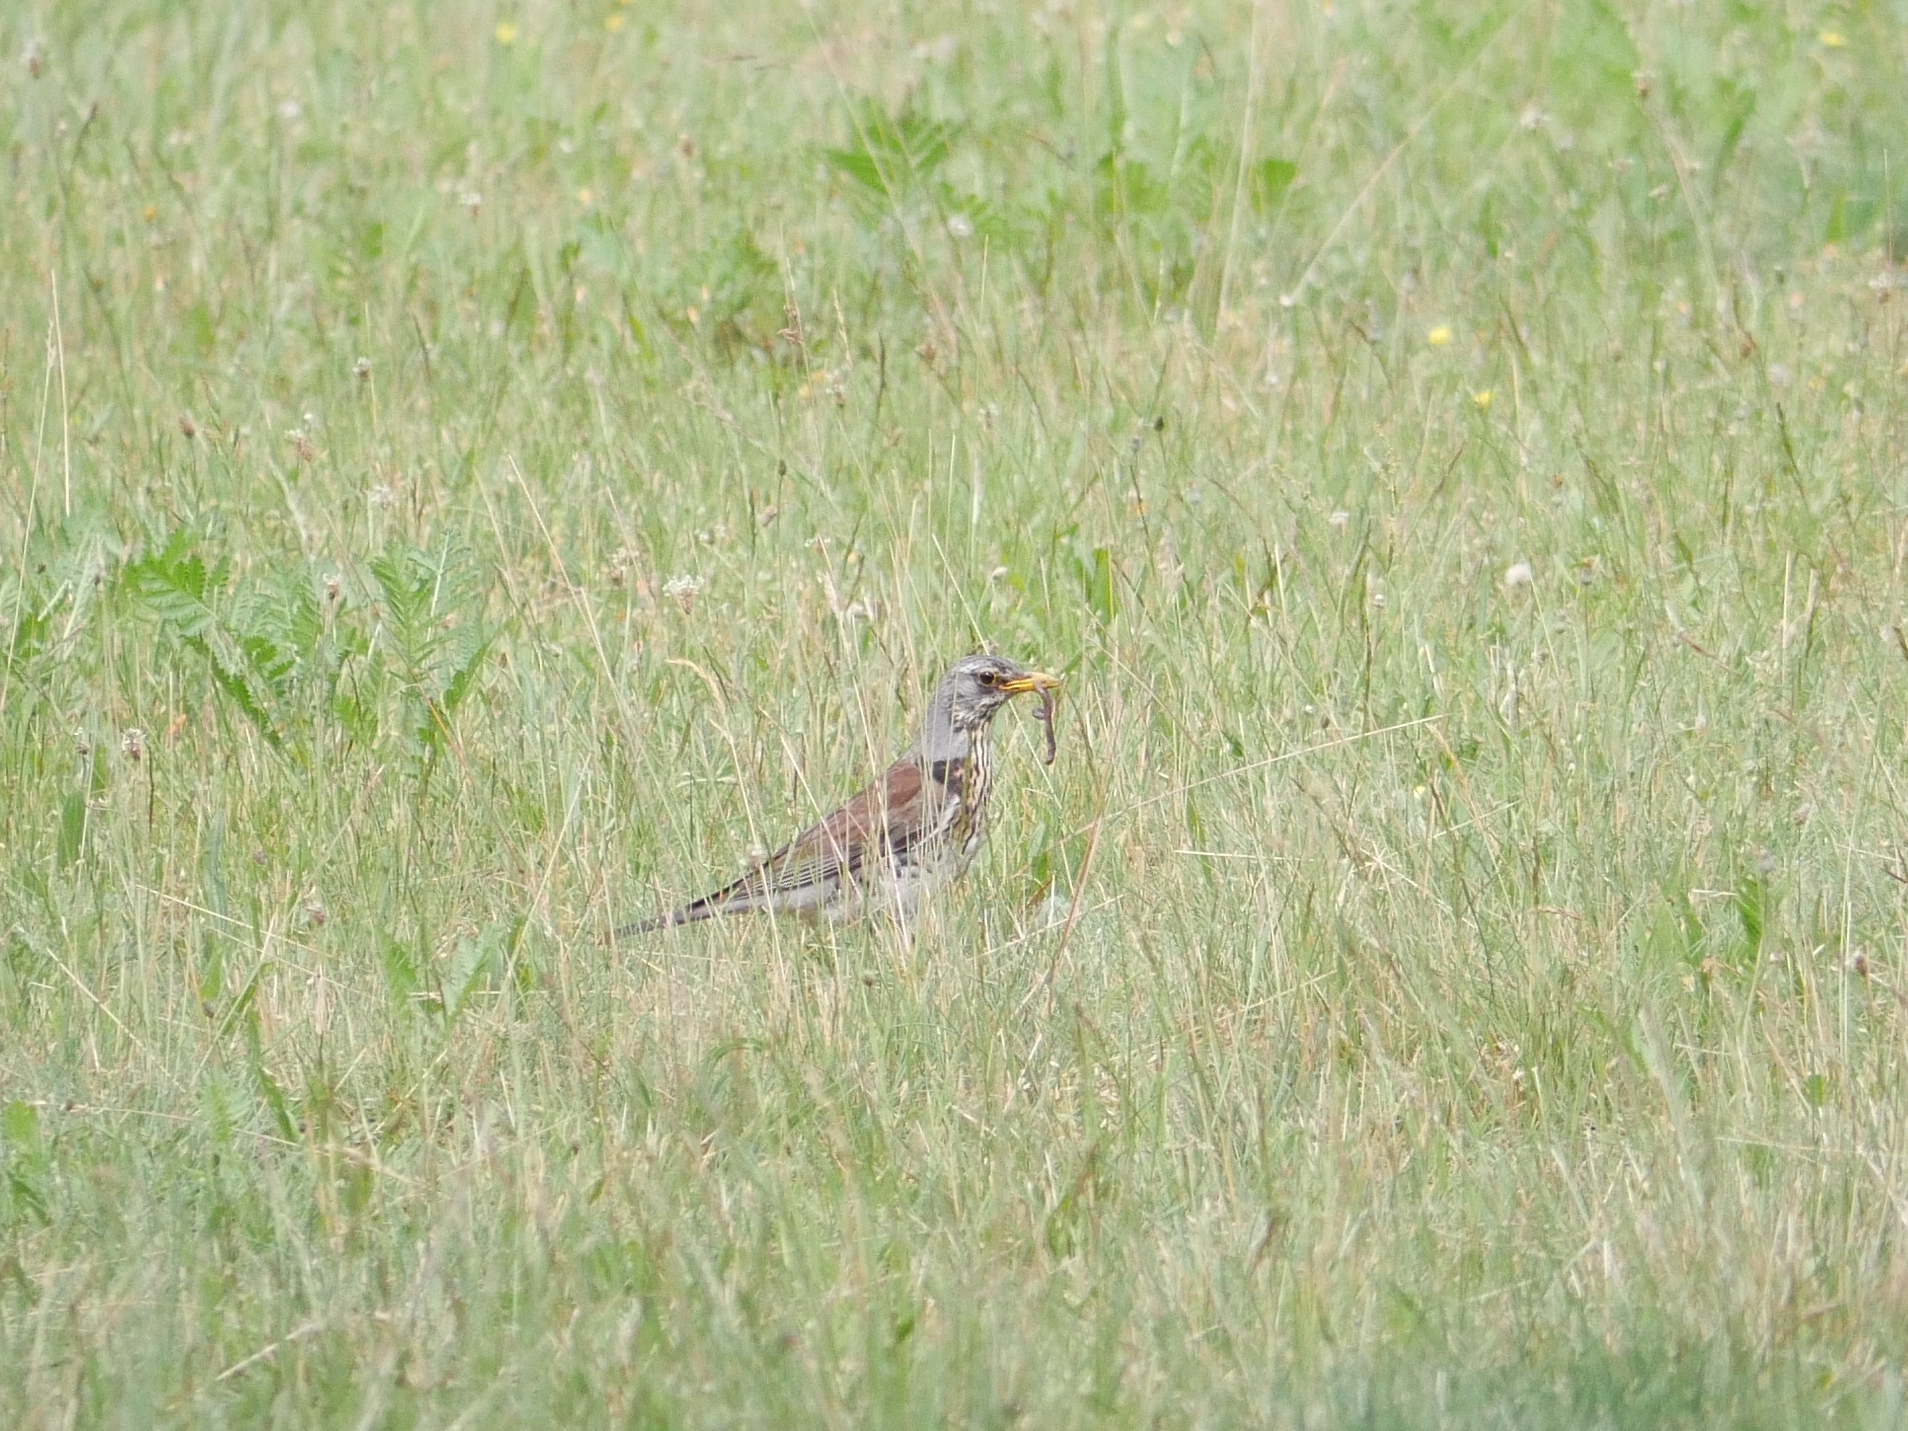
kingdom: Animalia
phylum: Chordata
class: Aves
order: Passeriformes
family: Turdidae
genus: Turdus
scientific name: Turdus pilaris
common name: Fieldfare
